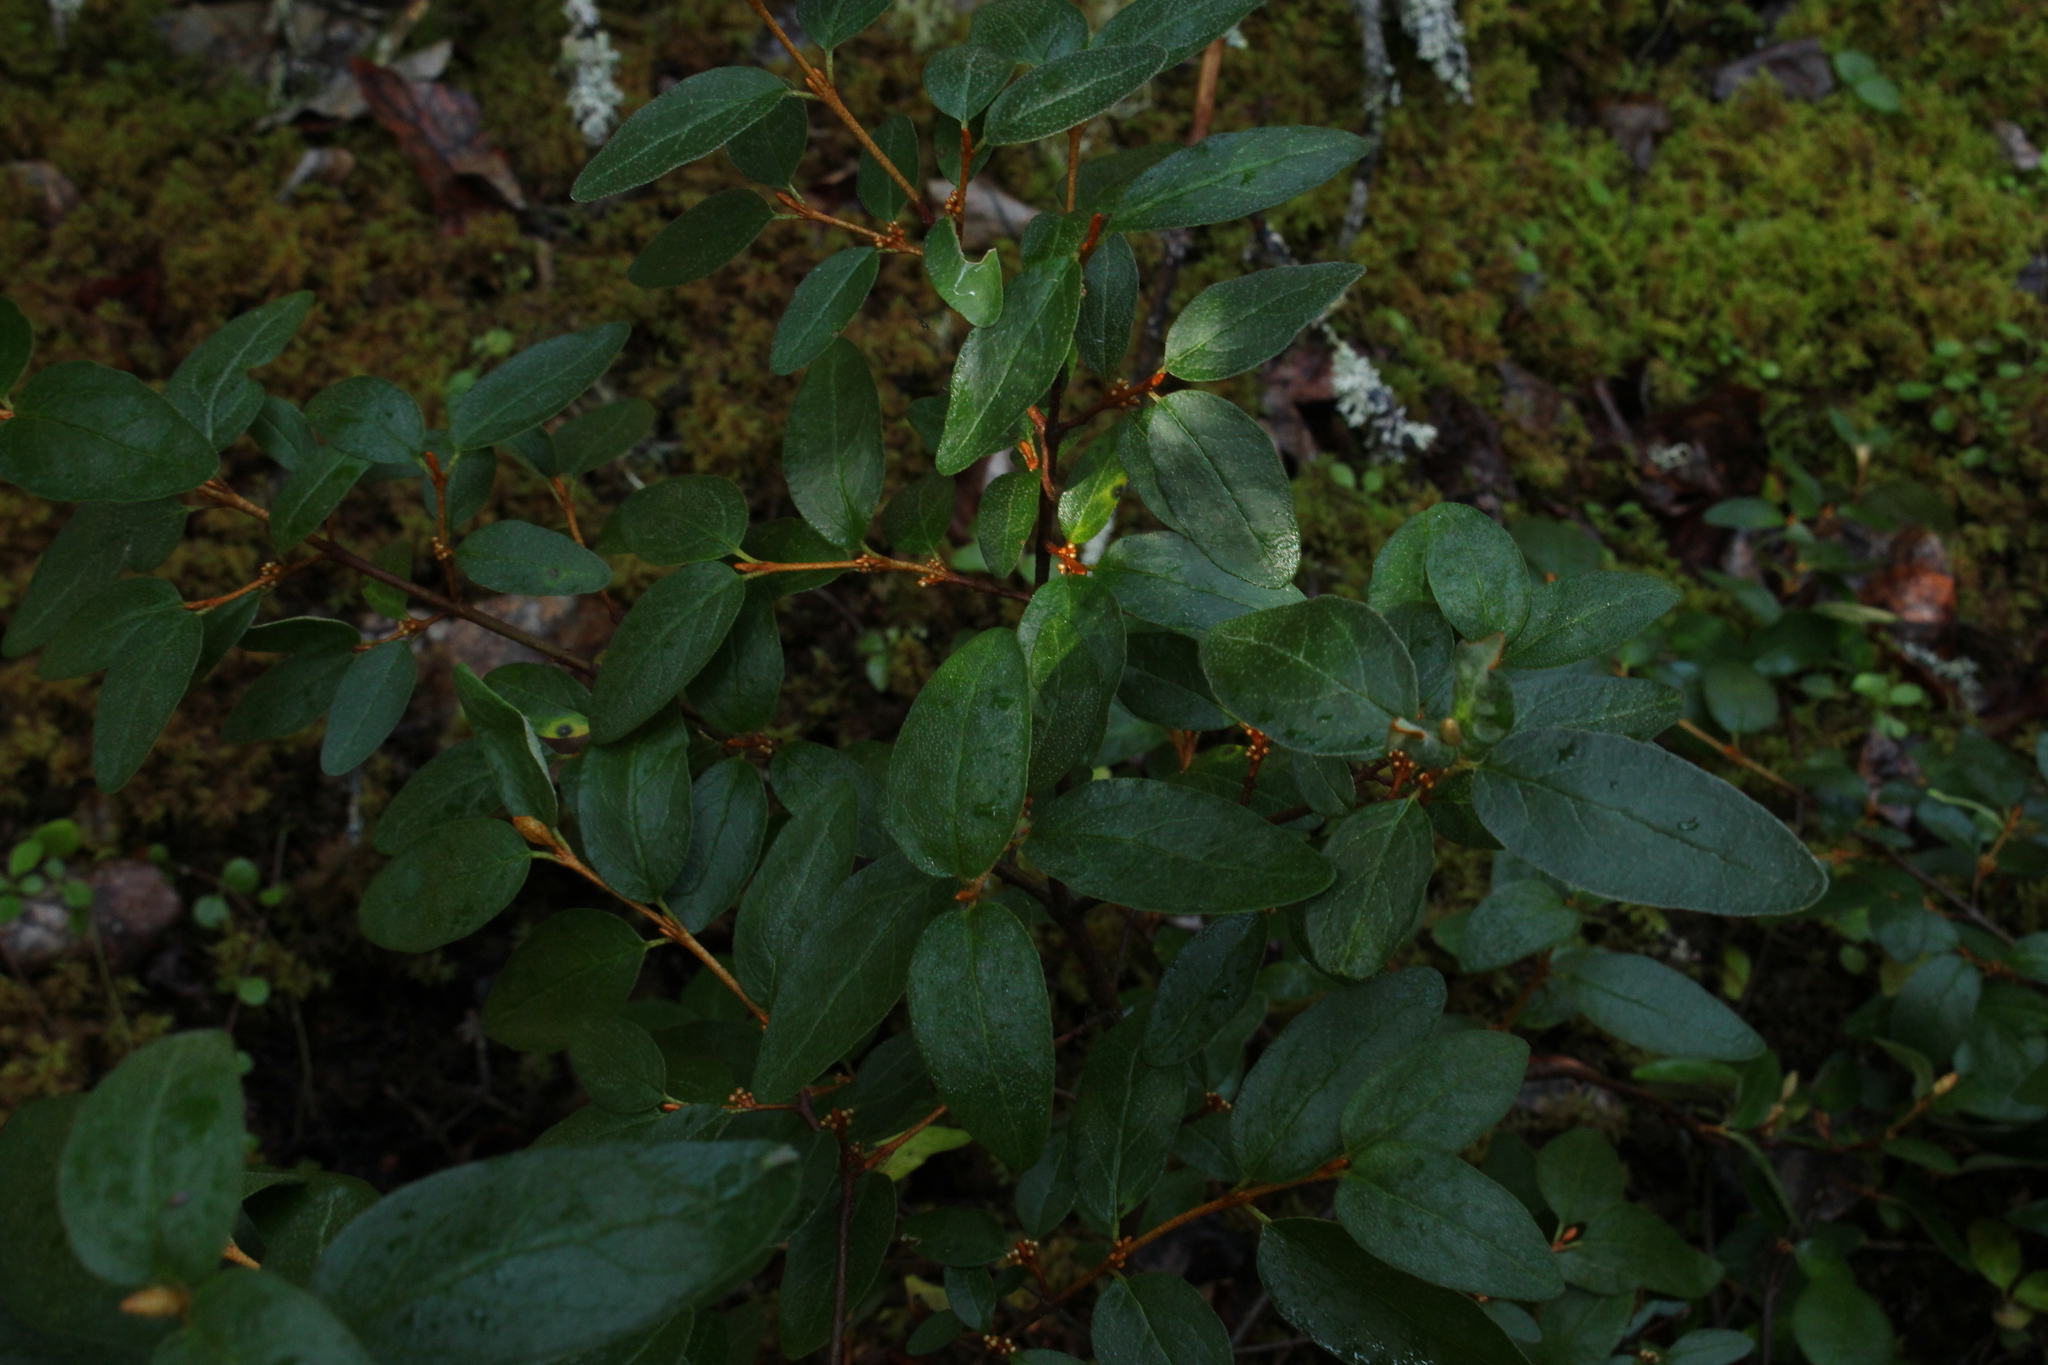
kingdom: Plantae
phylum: Tracheophyta
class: Magnoliopsida
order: Rosales
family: Elaeagnaceae
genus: Shepherdia
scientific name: Shepherdia canadensis
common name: Soapberry
